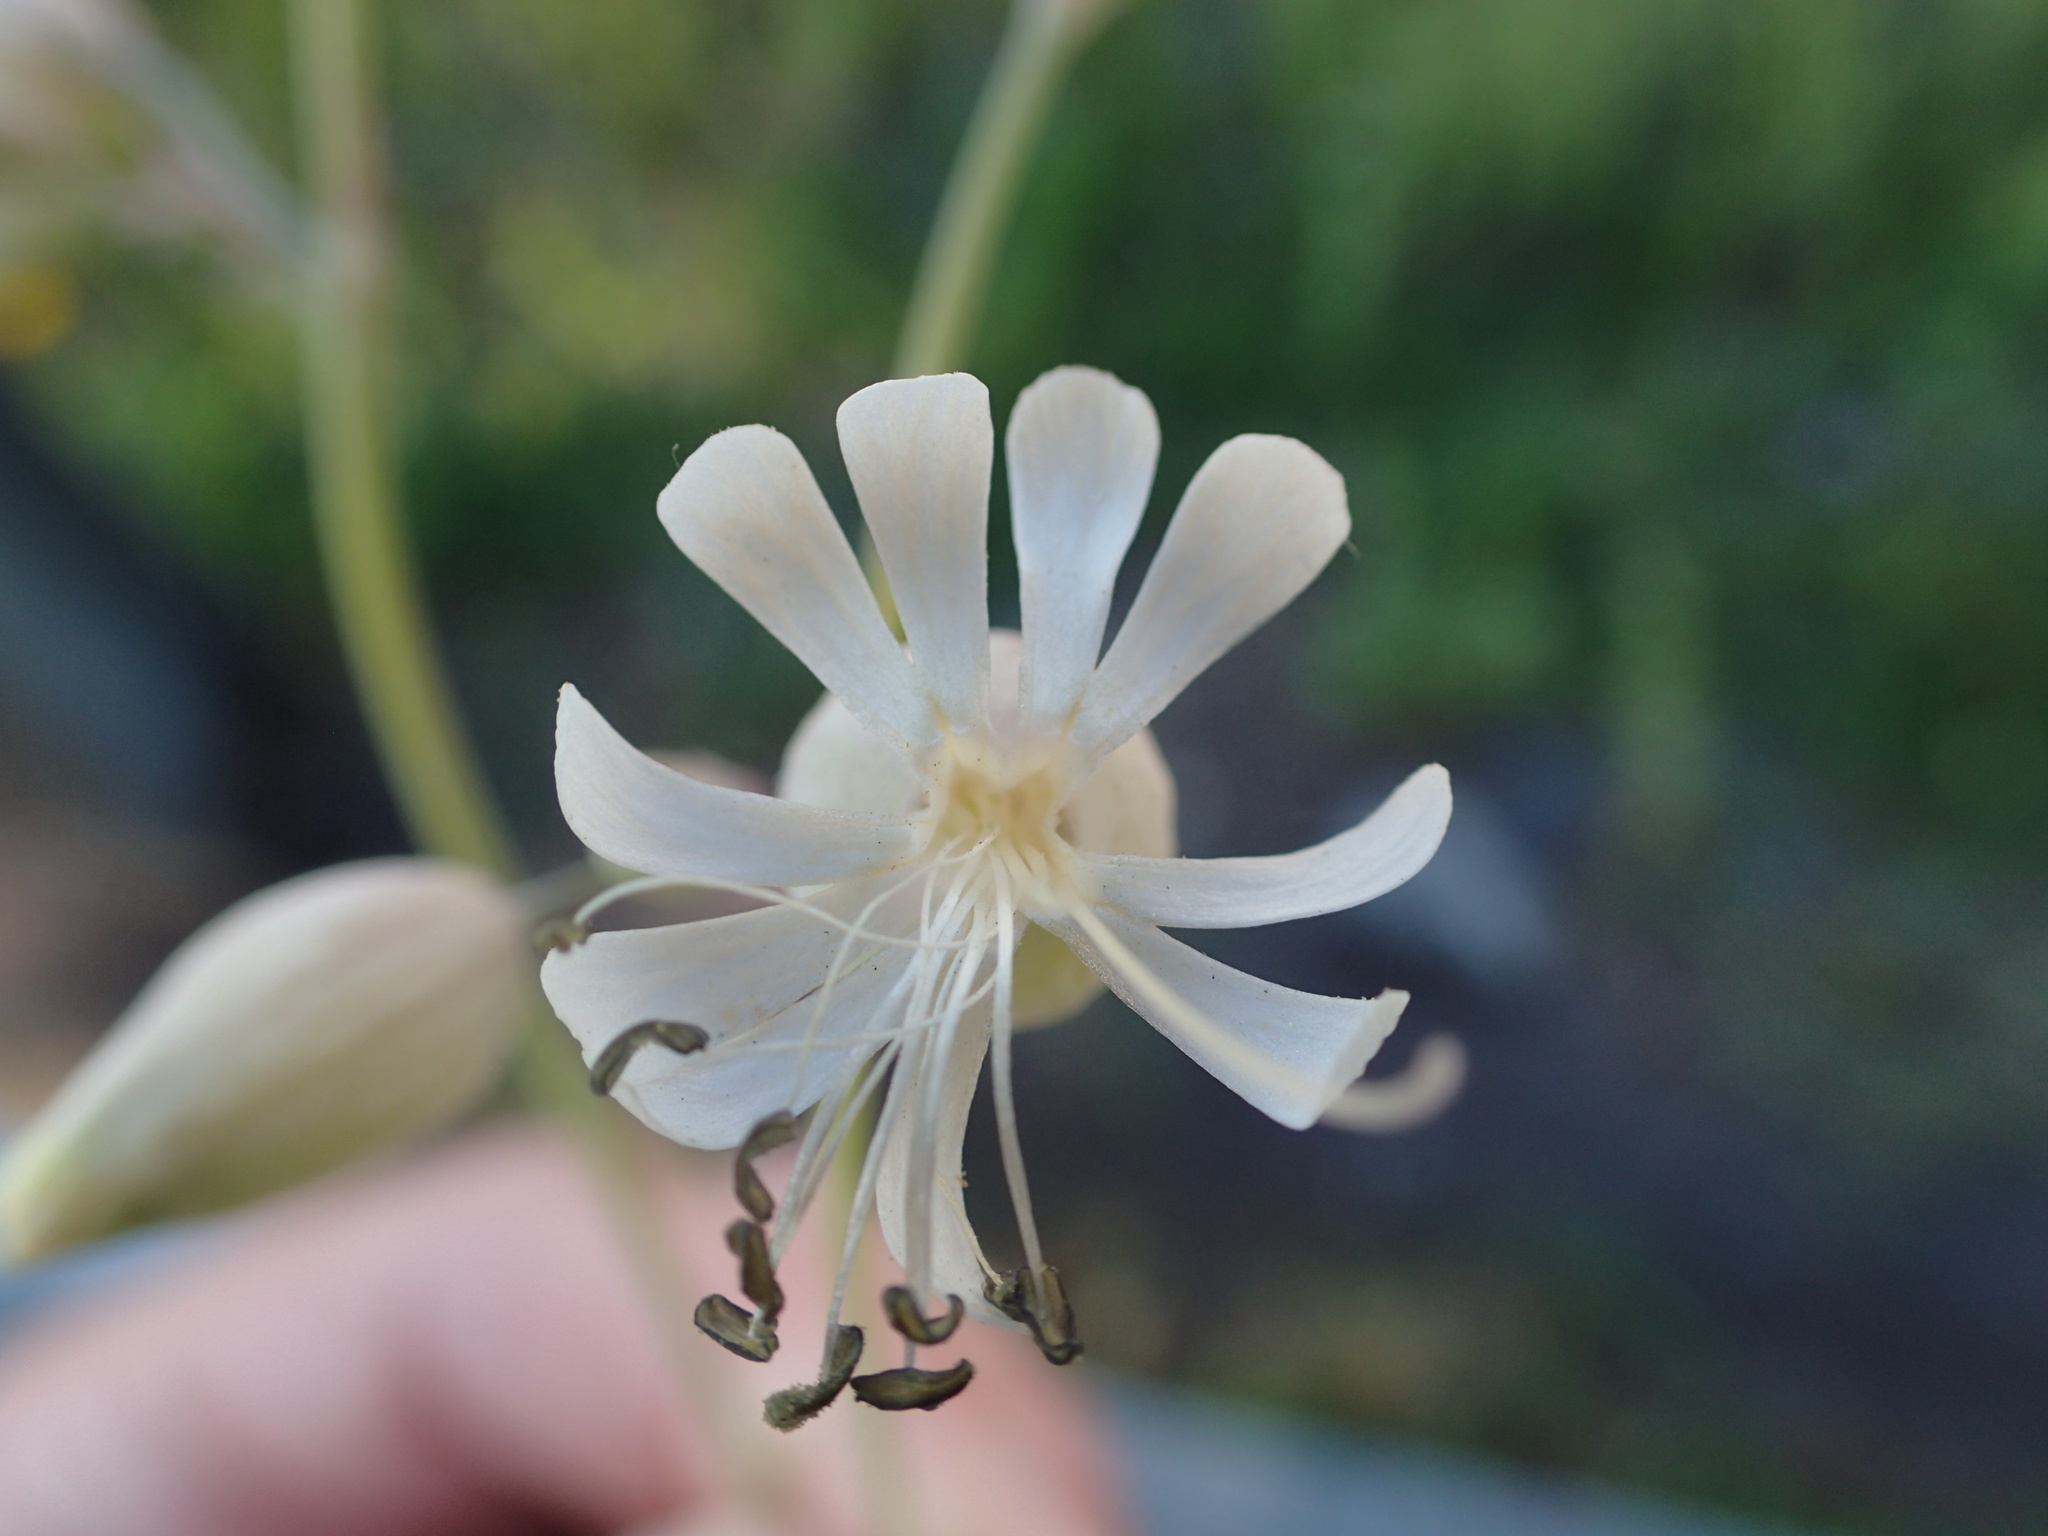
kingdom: Plantae
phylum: Tracheophyta
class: Magnoliopsida
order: Caryophyllales
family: Caryophyllaceae
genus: Silene
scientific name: Silene vulgaris
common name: Bladder campion
